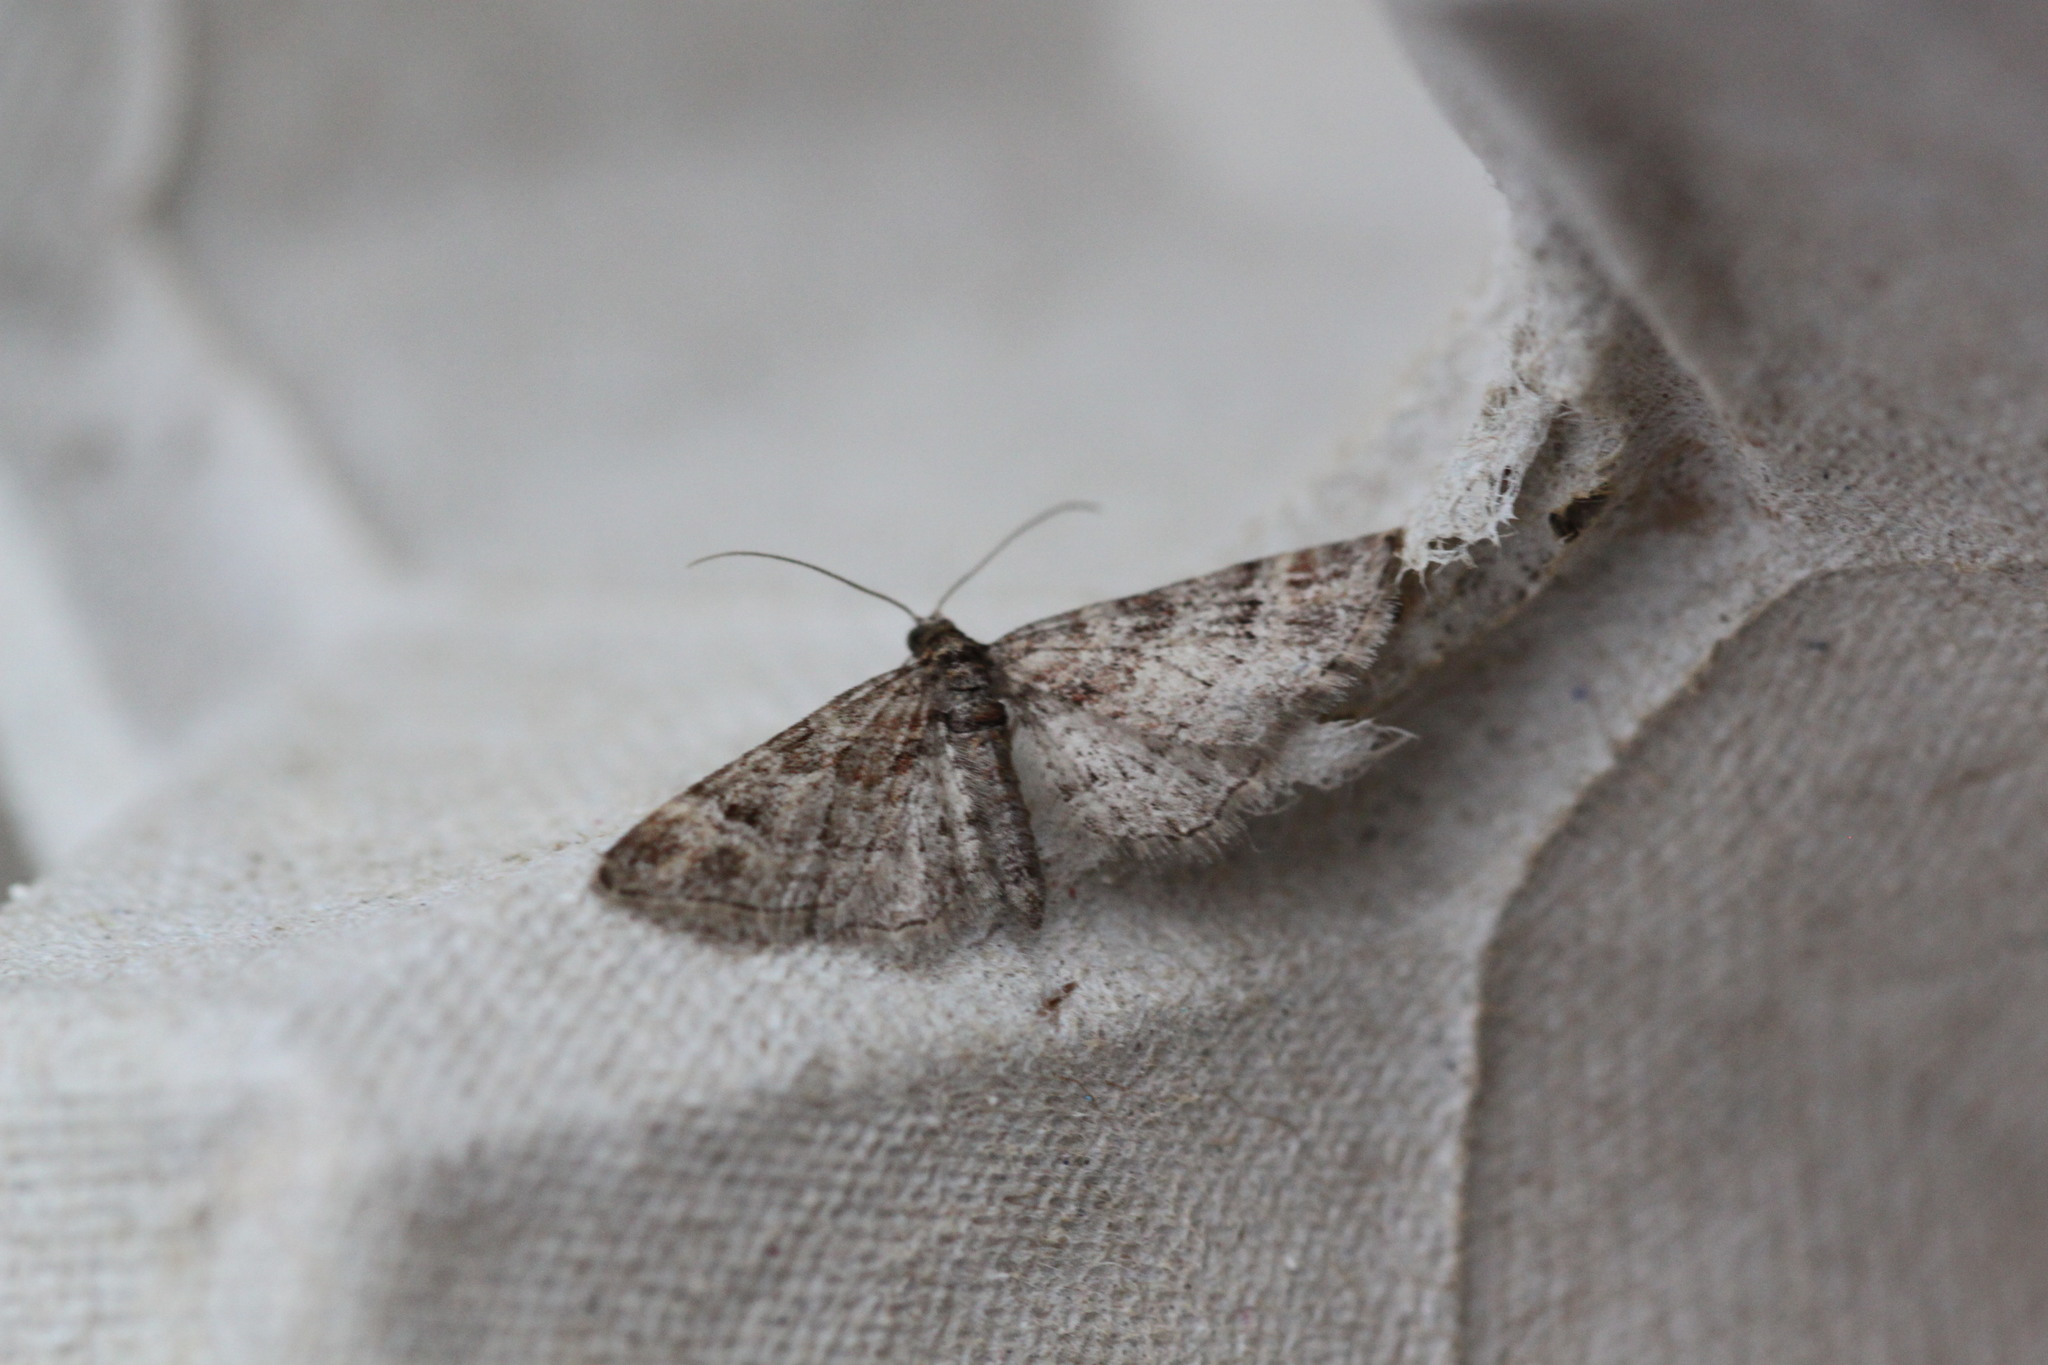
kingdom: Animalia
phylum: Arthropoda
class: Insecta
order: Lepidoptera
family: Geometridae
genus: Gymnoscelis
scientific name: Gymnoscelis rufifasciata
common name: Double-striped pug
